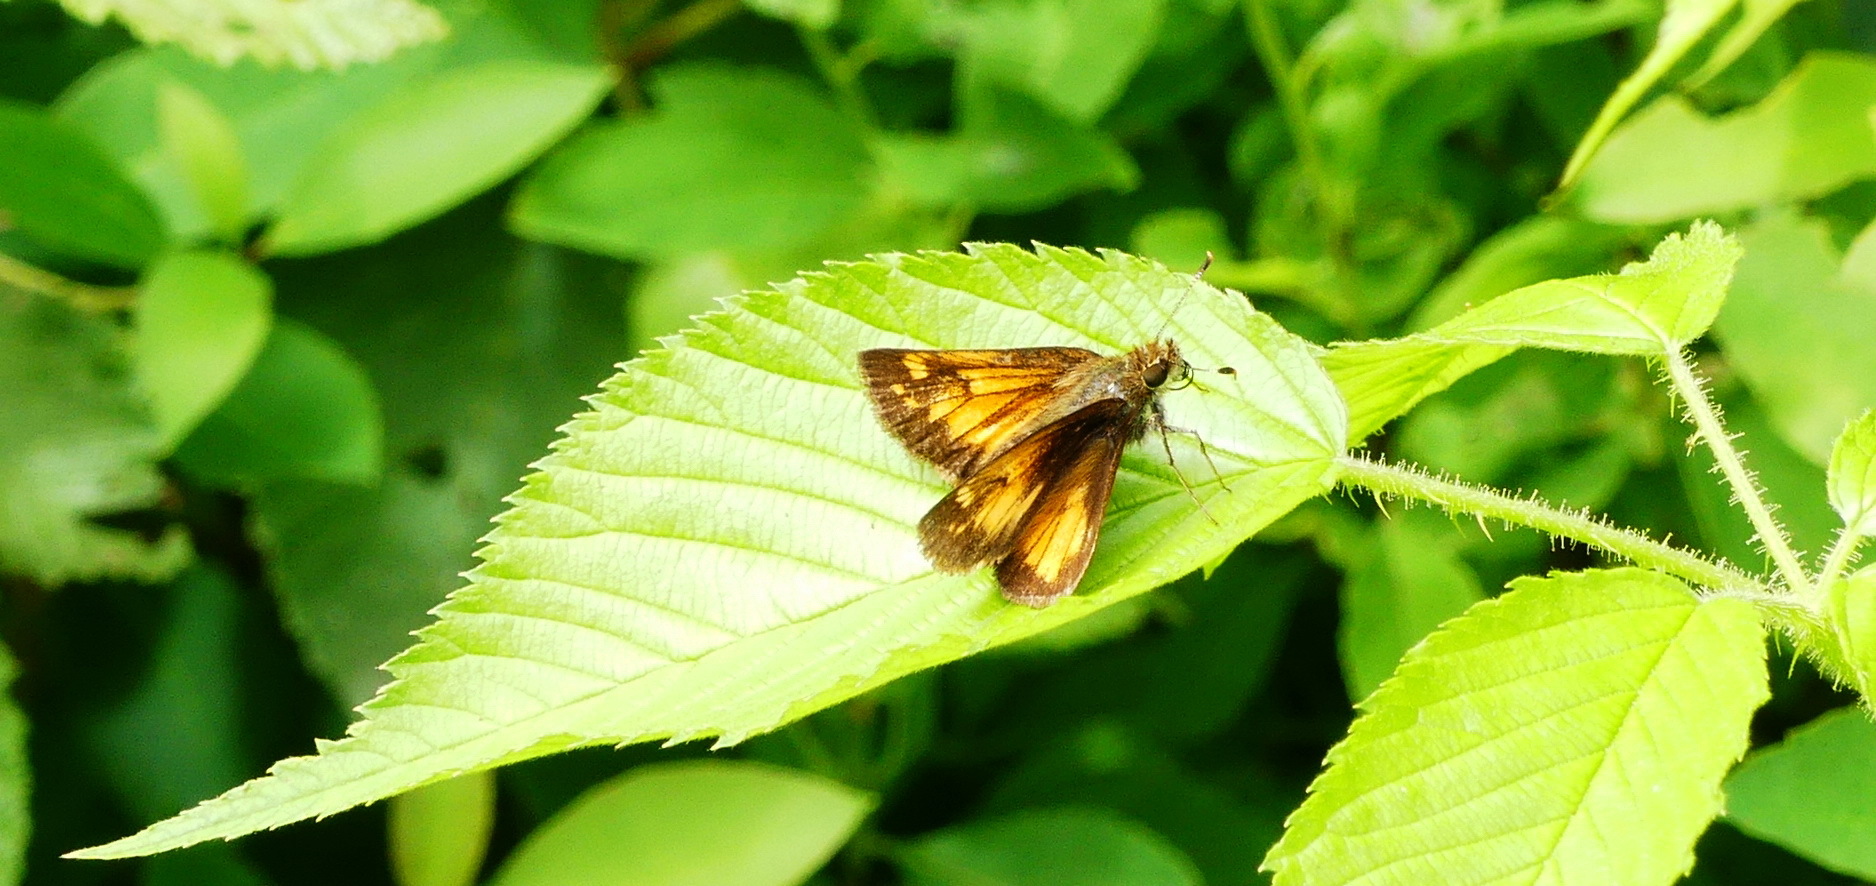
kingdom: Animalia
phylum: Arthropoda
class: Insecta
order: Lepidoptera
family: Hesperiidae
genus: Lon
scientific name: Lon hobomok
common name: Hobomok skipper
